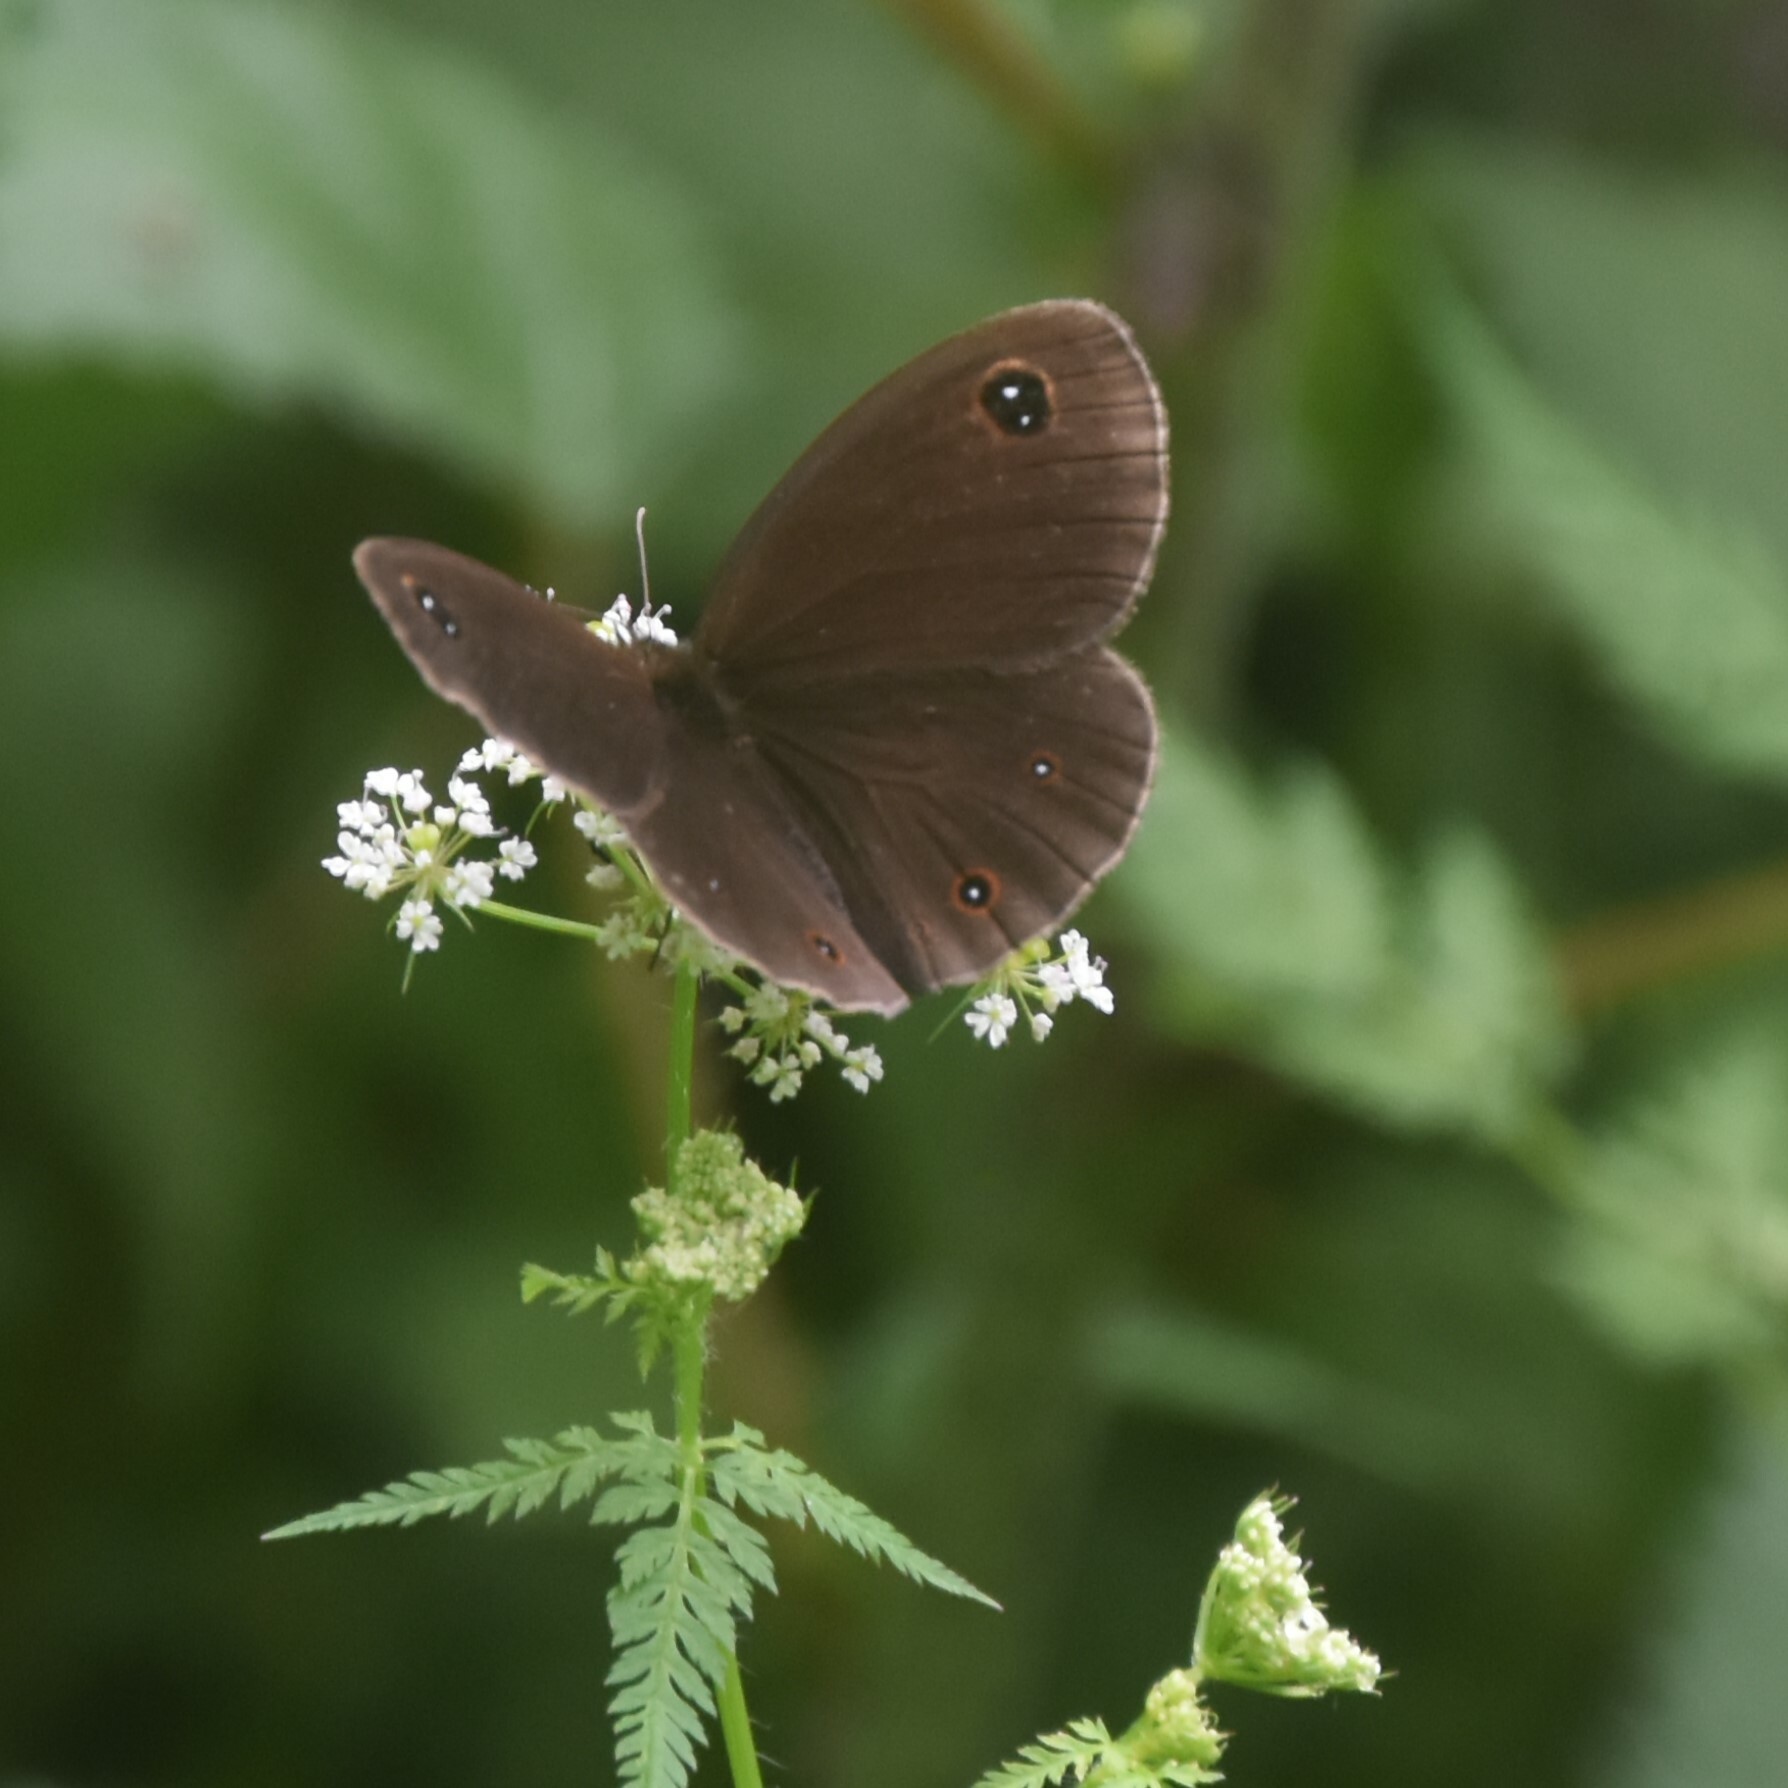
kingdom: Animalia
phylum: Arthropoda
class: Insecta
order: Lepidoptera
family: Nymphalidae
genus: Callerebia
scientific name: Callerebia nirmala
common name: Common argus
